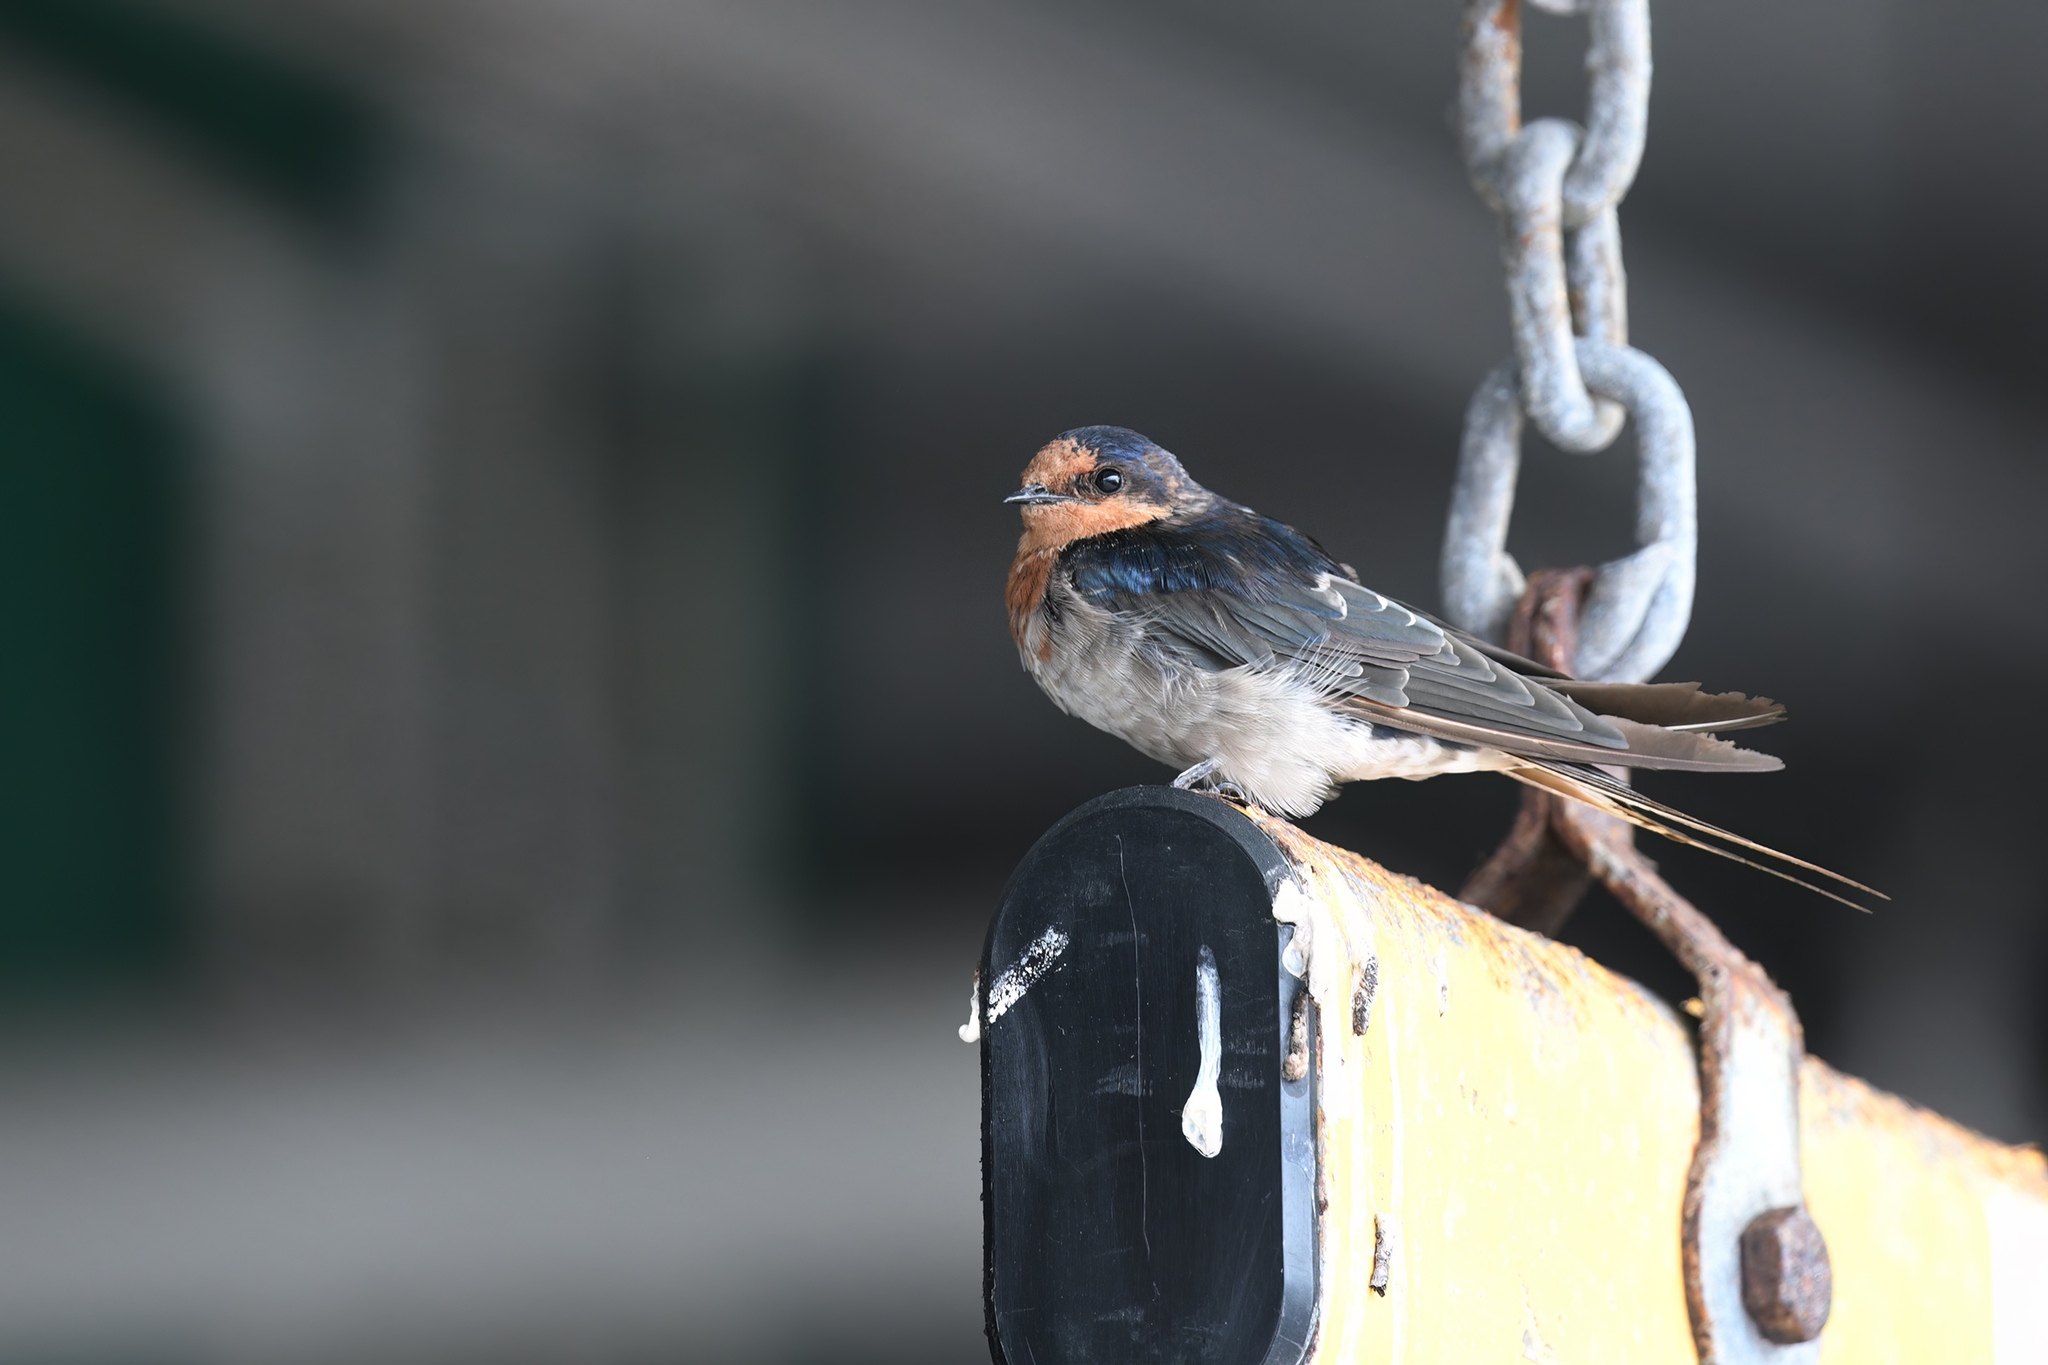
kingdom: Animalia
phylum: Chordata
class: Aves
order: Passeriformes
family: Hirundinidae
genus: Hirundo
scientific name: Hirundo neoxena
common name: Welcome swallow
